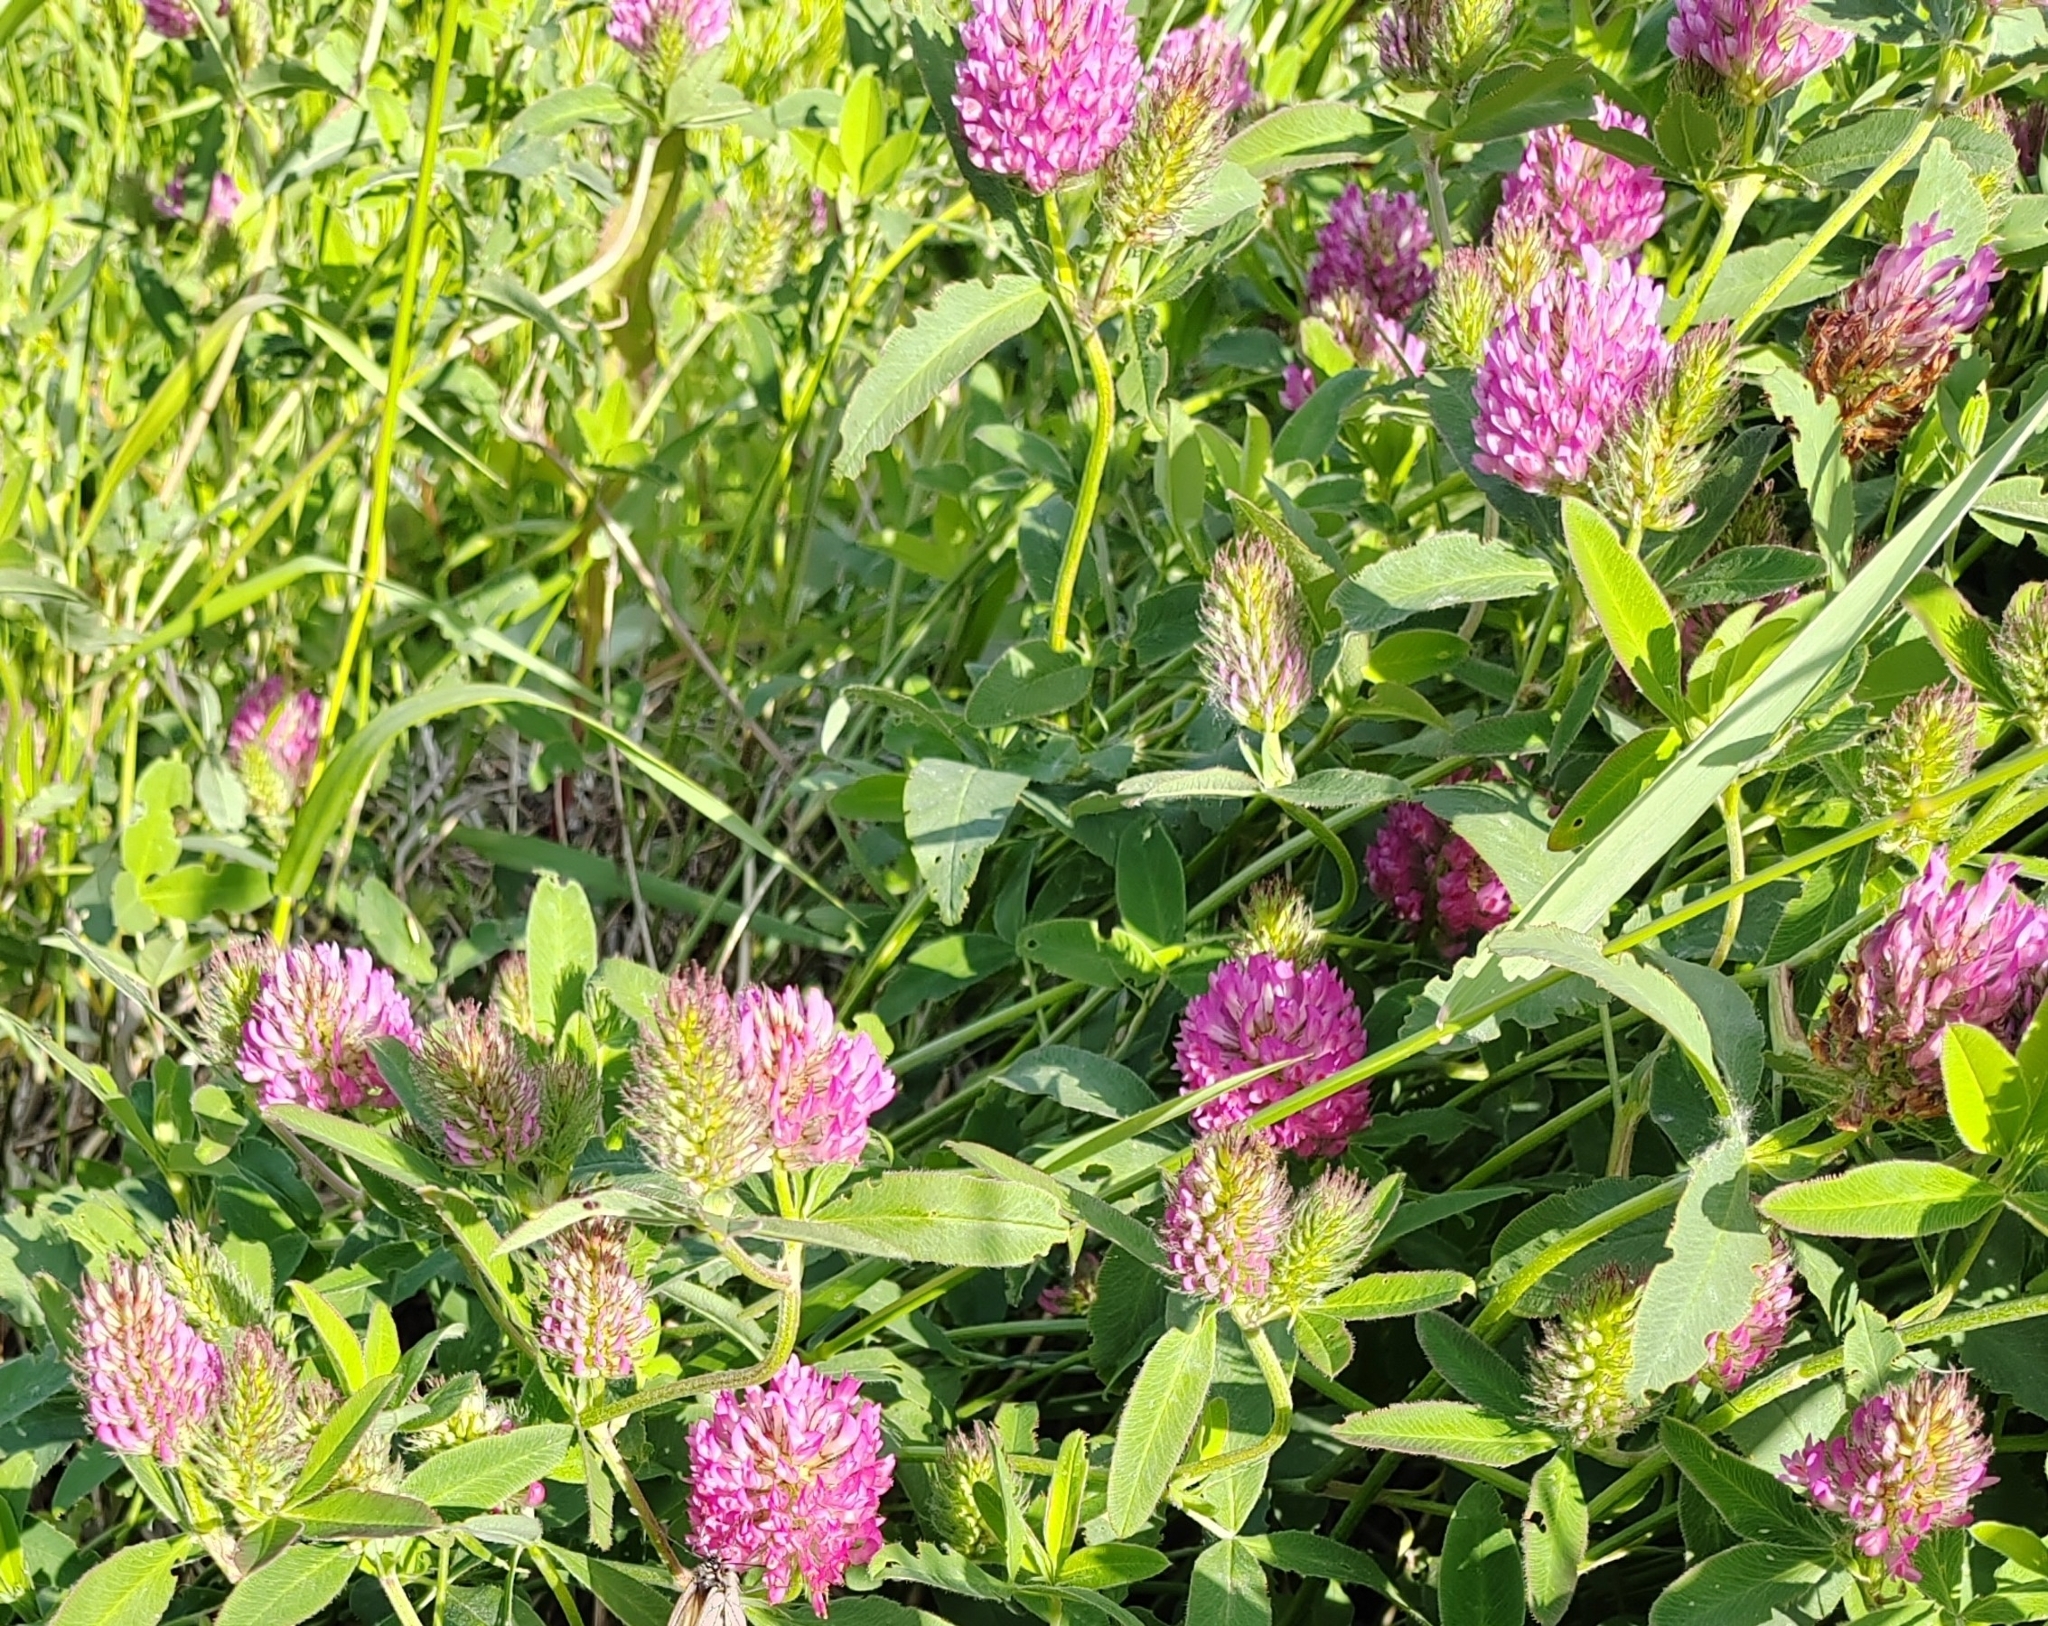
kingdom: Plantae
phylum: Tracheophyta
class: Magnoliopsida
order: Fabales
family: Fabaceae
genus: Trifolium
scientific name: Trifolium medium
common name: Zigzag clover
